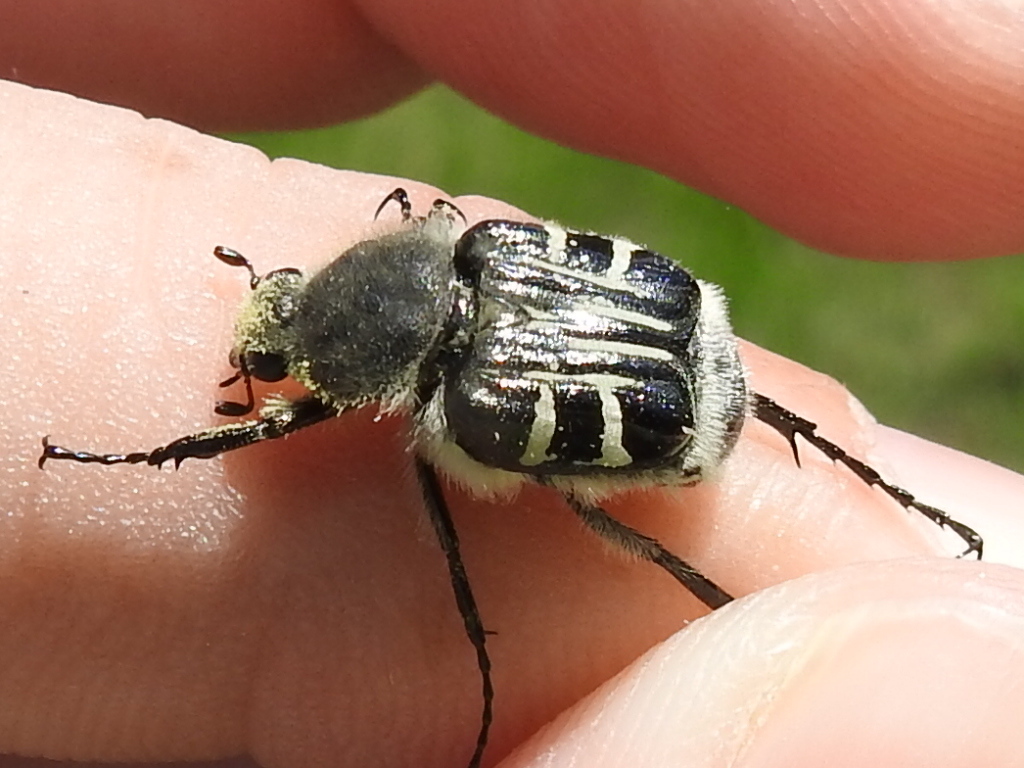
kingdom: Animalia
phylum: Arthropoda
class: Insecta
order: Coleoptera
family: Scarabaeidae
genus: Trichiotinus
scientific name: Trichiotinus texanus
